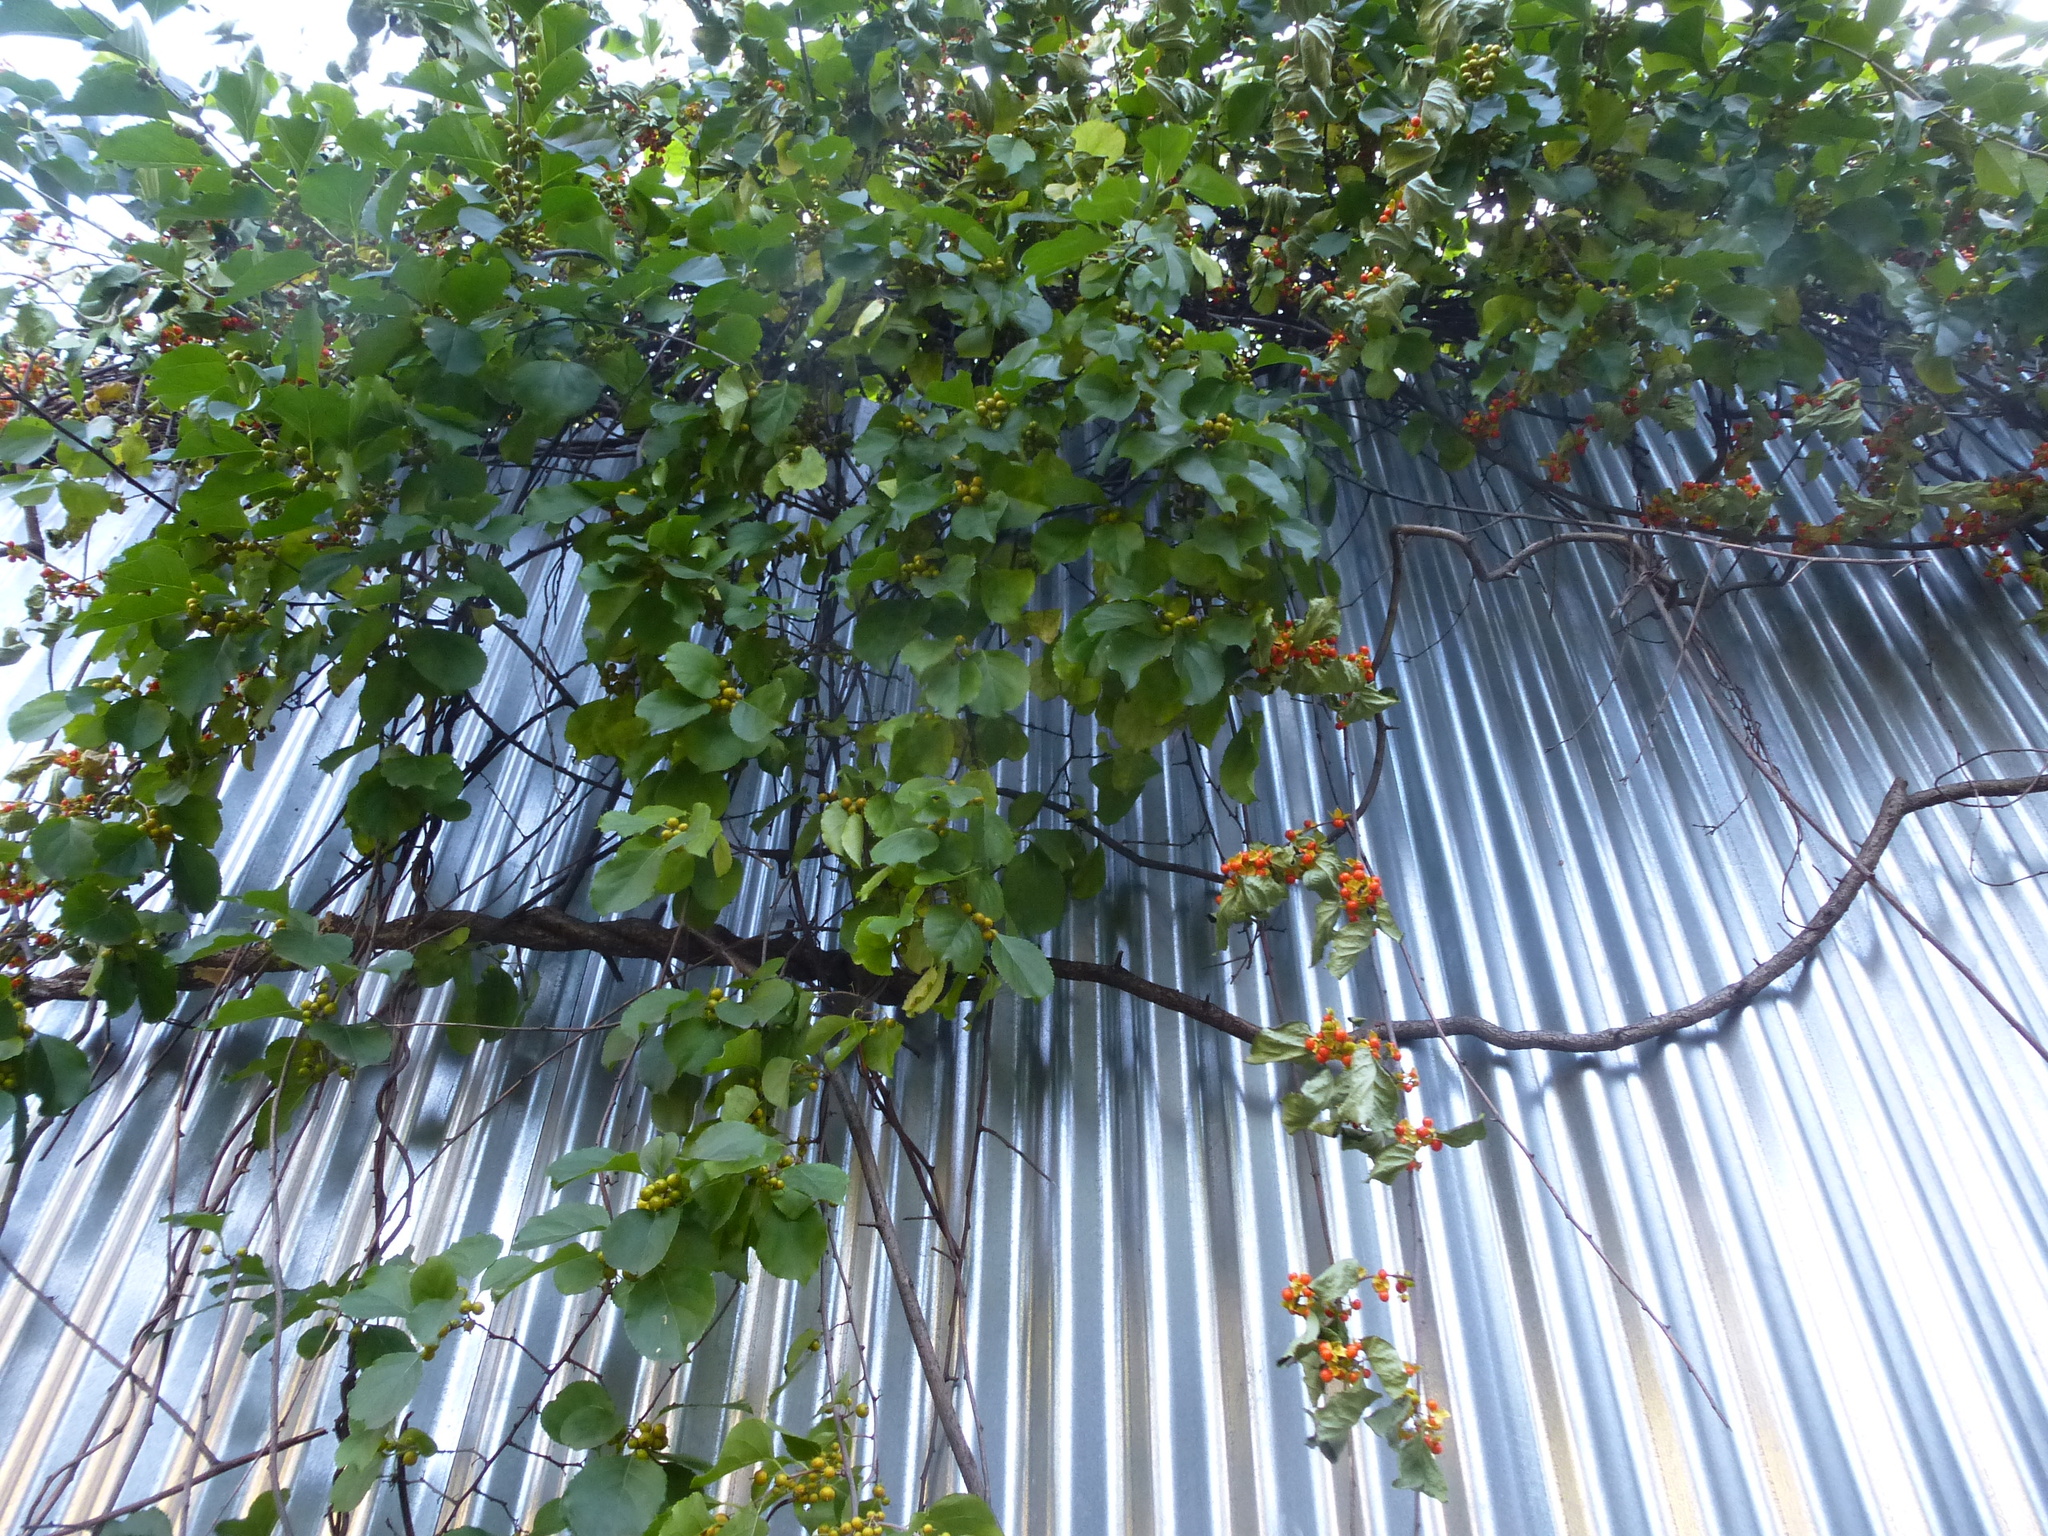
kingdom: Plantae
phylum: Tracheophyta
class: Magnoliopsida
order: Celastrales
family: Celastraceae
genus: Celastrus
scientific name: Celastrus orbiculatus
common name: Oriental bittersweet
